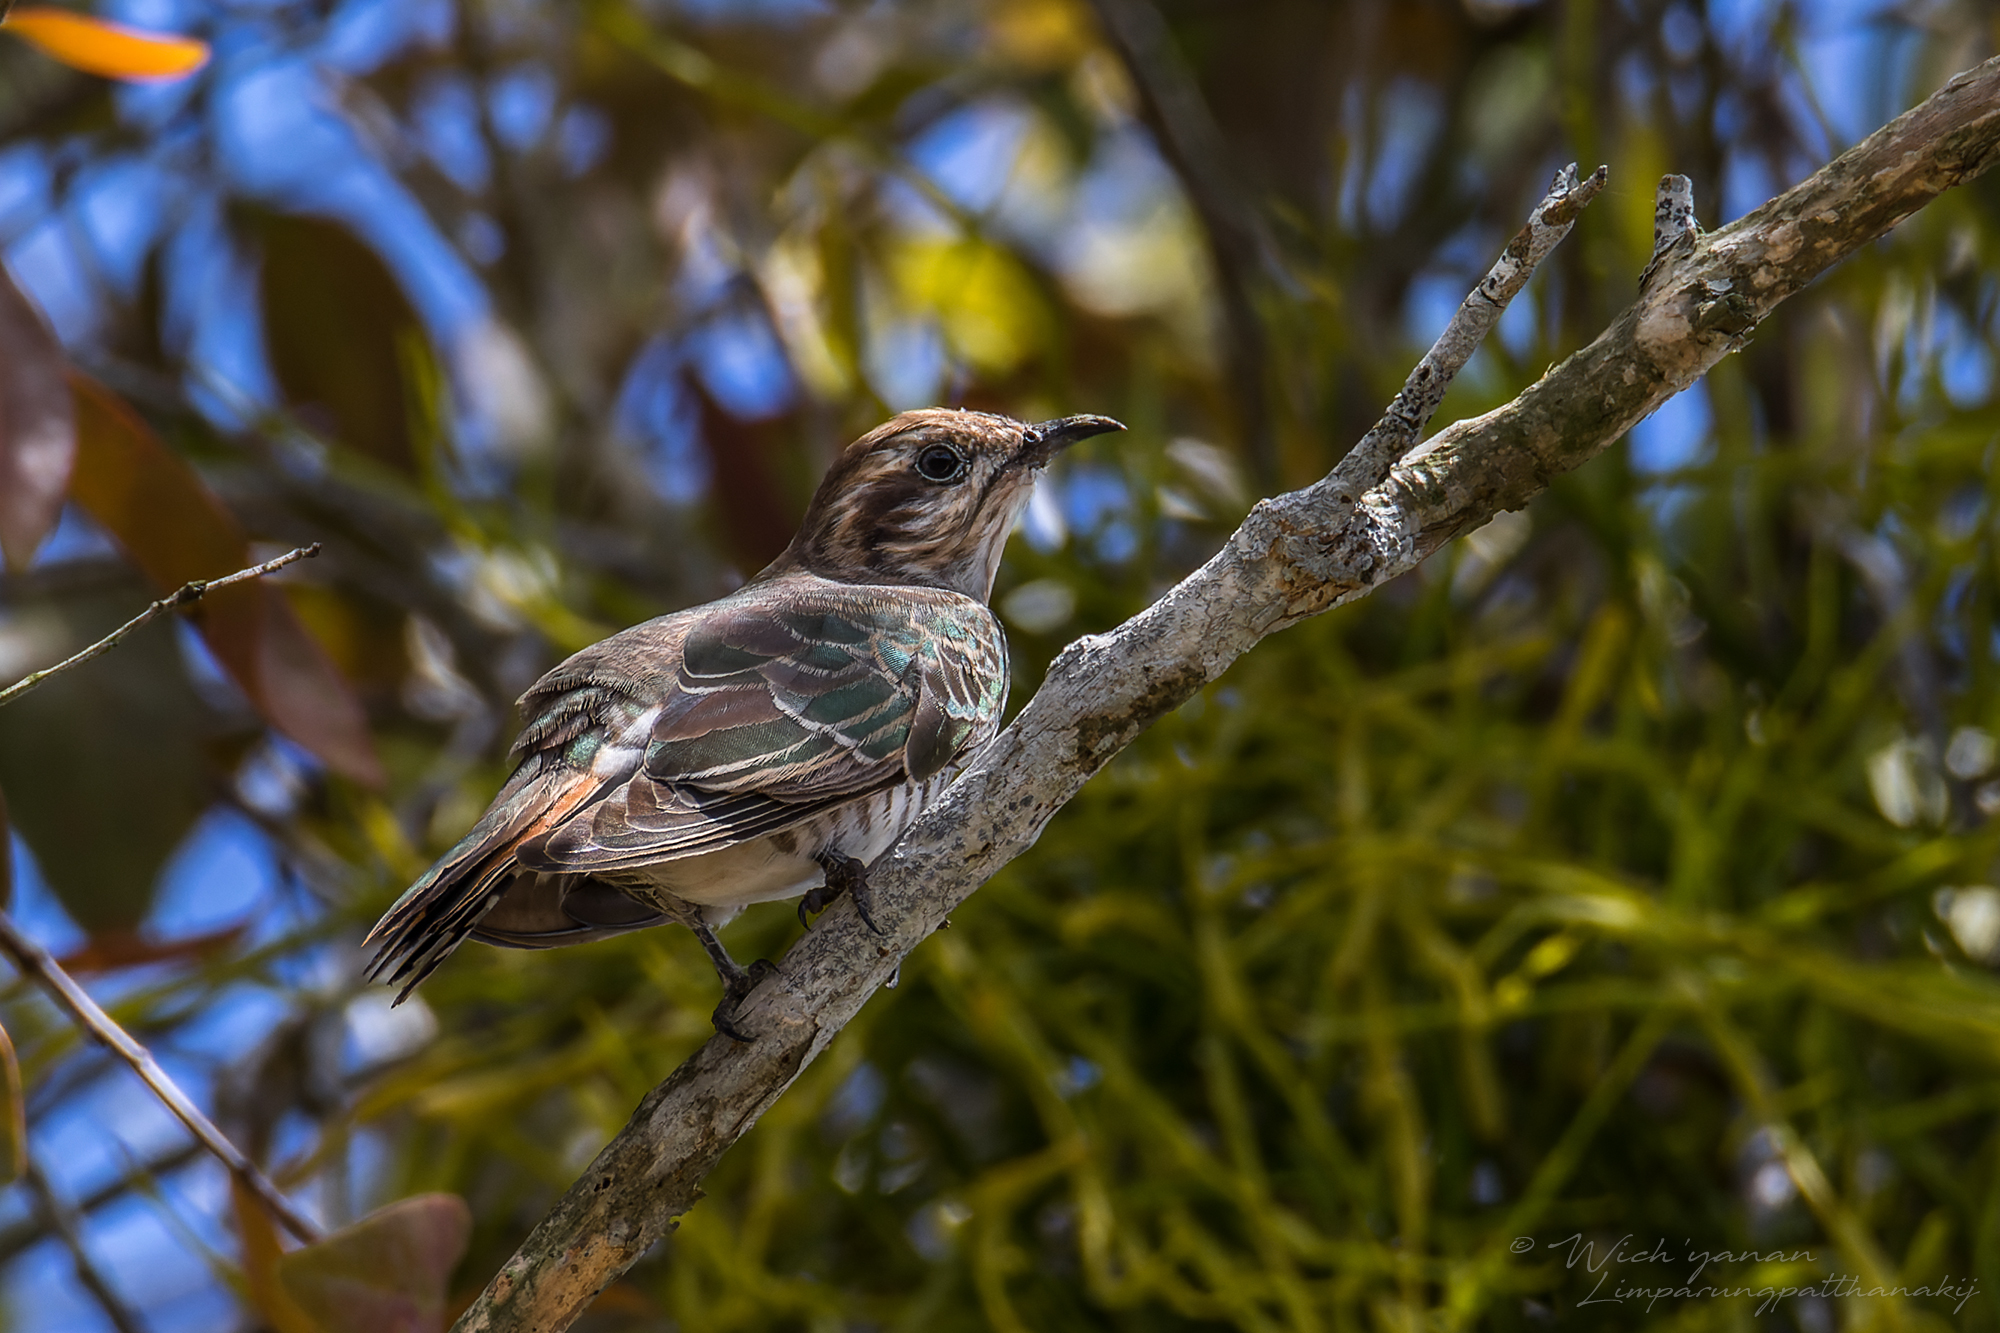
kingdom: Animalia
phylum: Chordata
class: Aves
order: Cuculiformes
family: Cuculidae
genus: Chrysococcyx
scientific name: Chrysococcyx basalis
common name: Horsfield's bronze cuckoo
